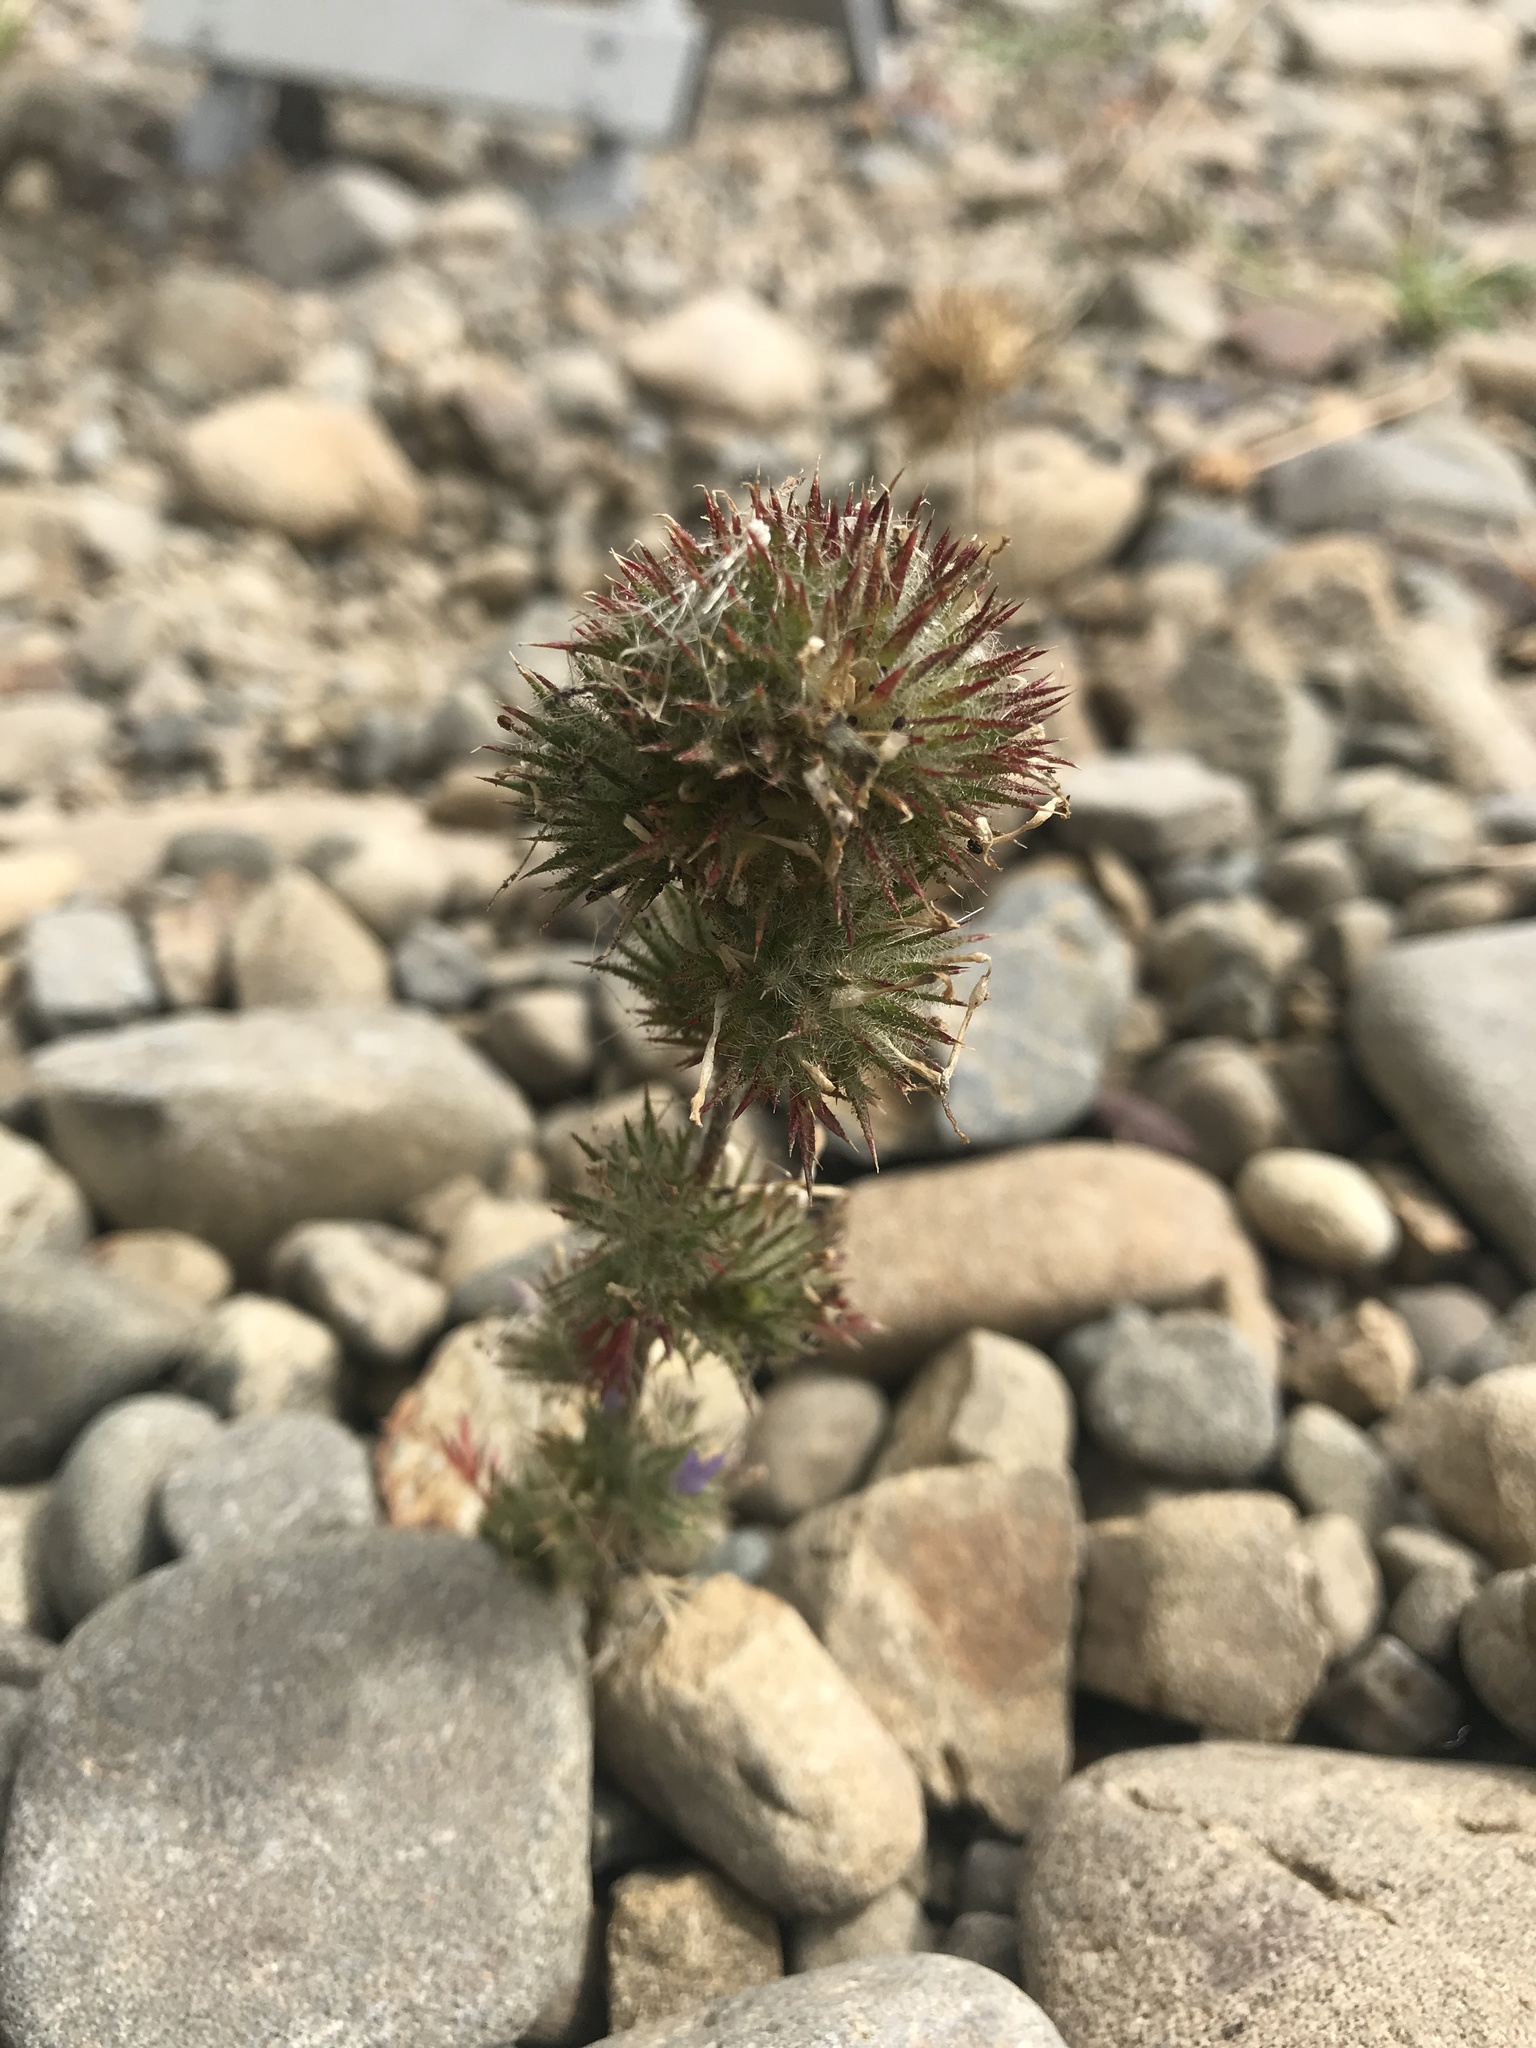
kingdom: Plantae
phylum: Tracheophyta
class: Magnoliopsida
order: Ericales
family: Polemoniaceae
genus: Navarretia
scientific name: Navarretia squarrosa
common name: Skunkweed
